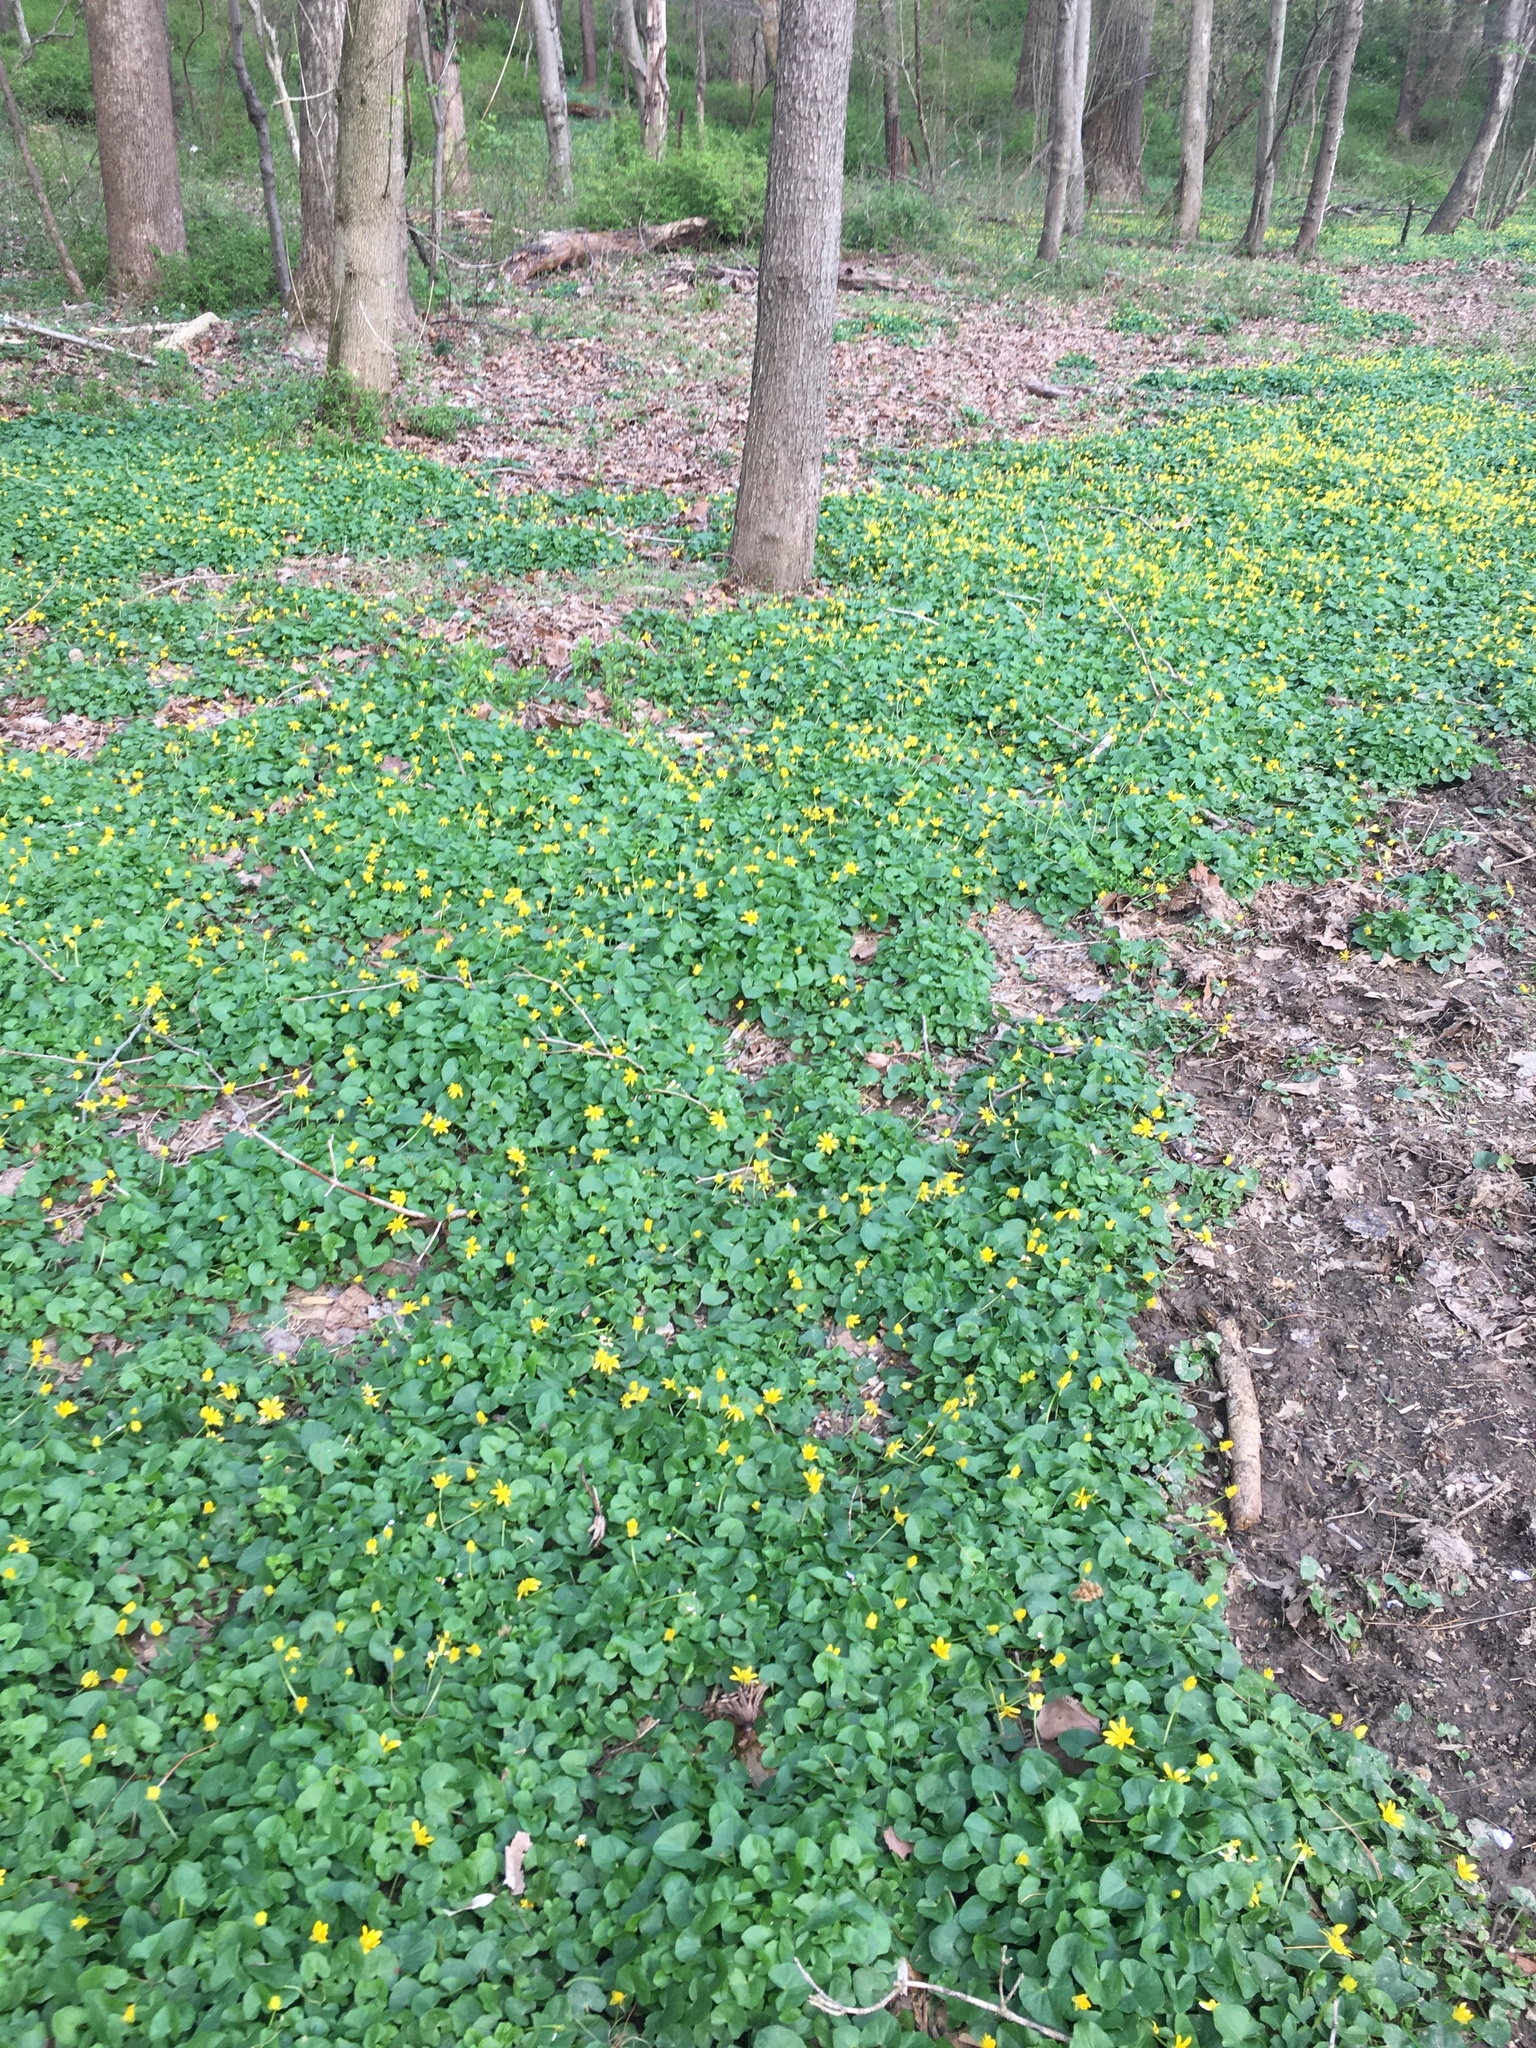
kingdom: Plantae
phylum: Tracheophyta
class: Magnoliopsida
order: Ranunculales
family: Ranunculaceae
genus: Ficaria
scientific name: Ficaria verna
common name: Lesser celandine
